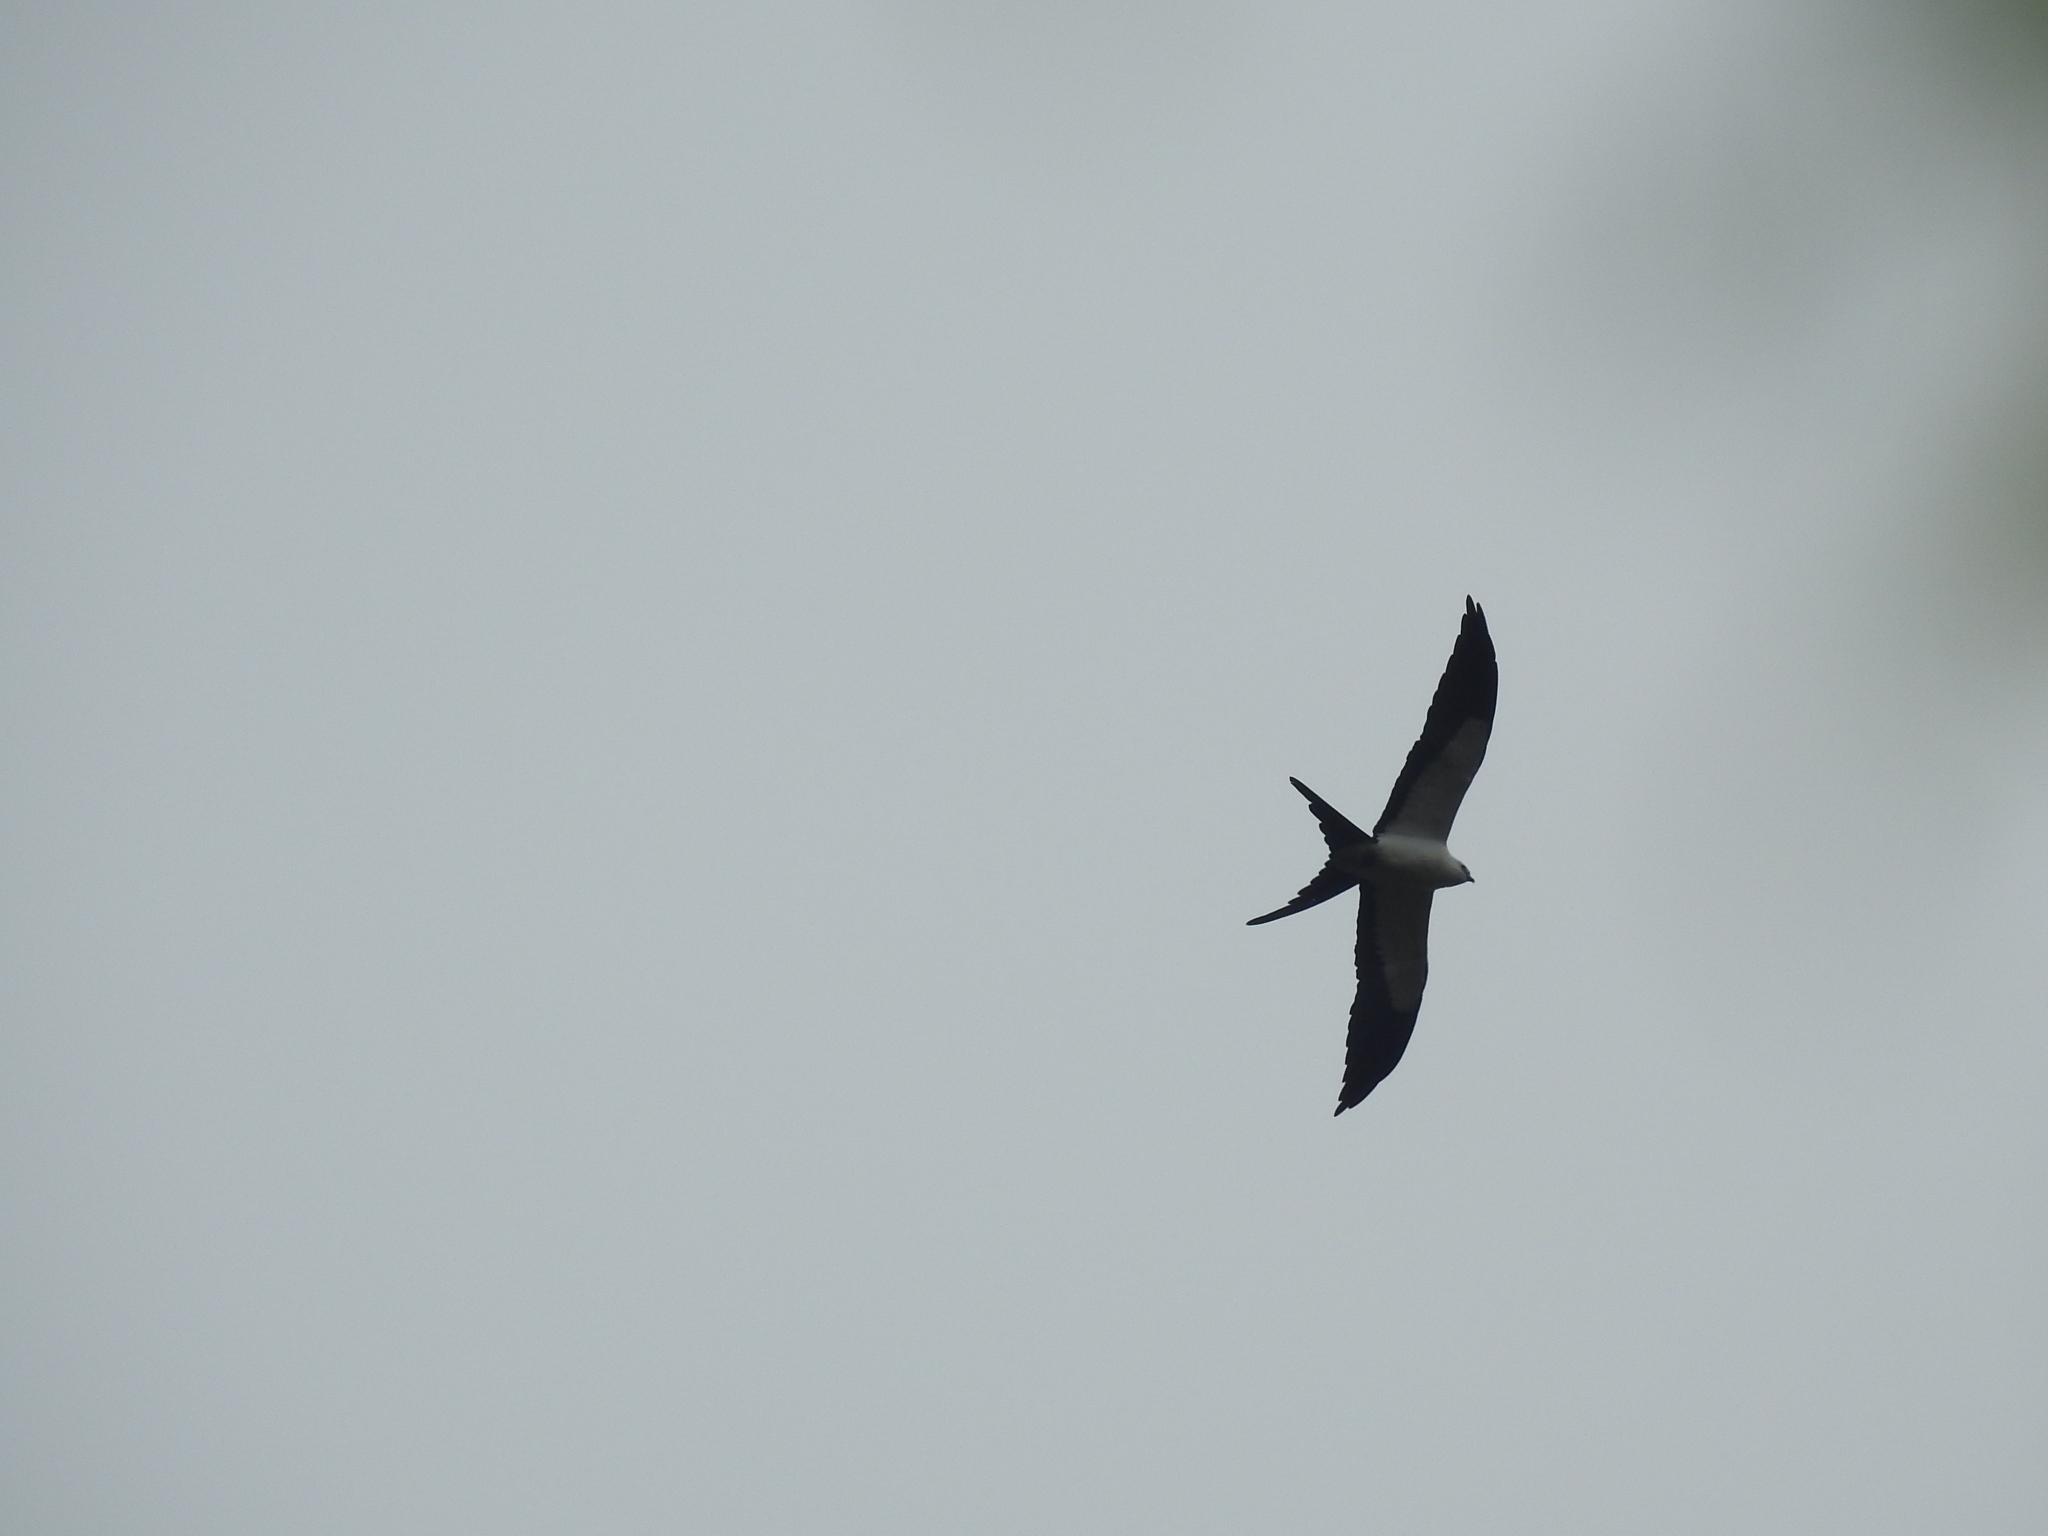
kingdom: Animalia
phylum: Chordata
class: Aves
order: Accipitriformes
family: Accipitridae
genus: Elanoides
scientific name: Elanoides forficatus
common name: Swallow-tailed kite
